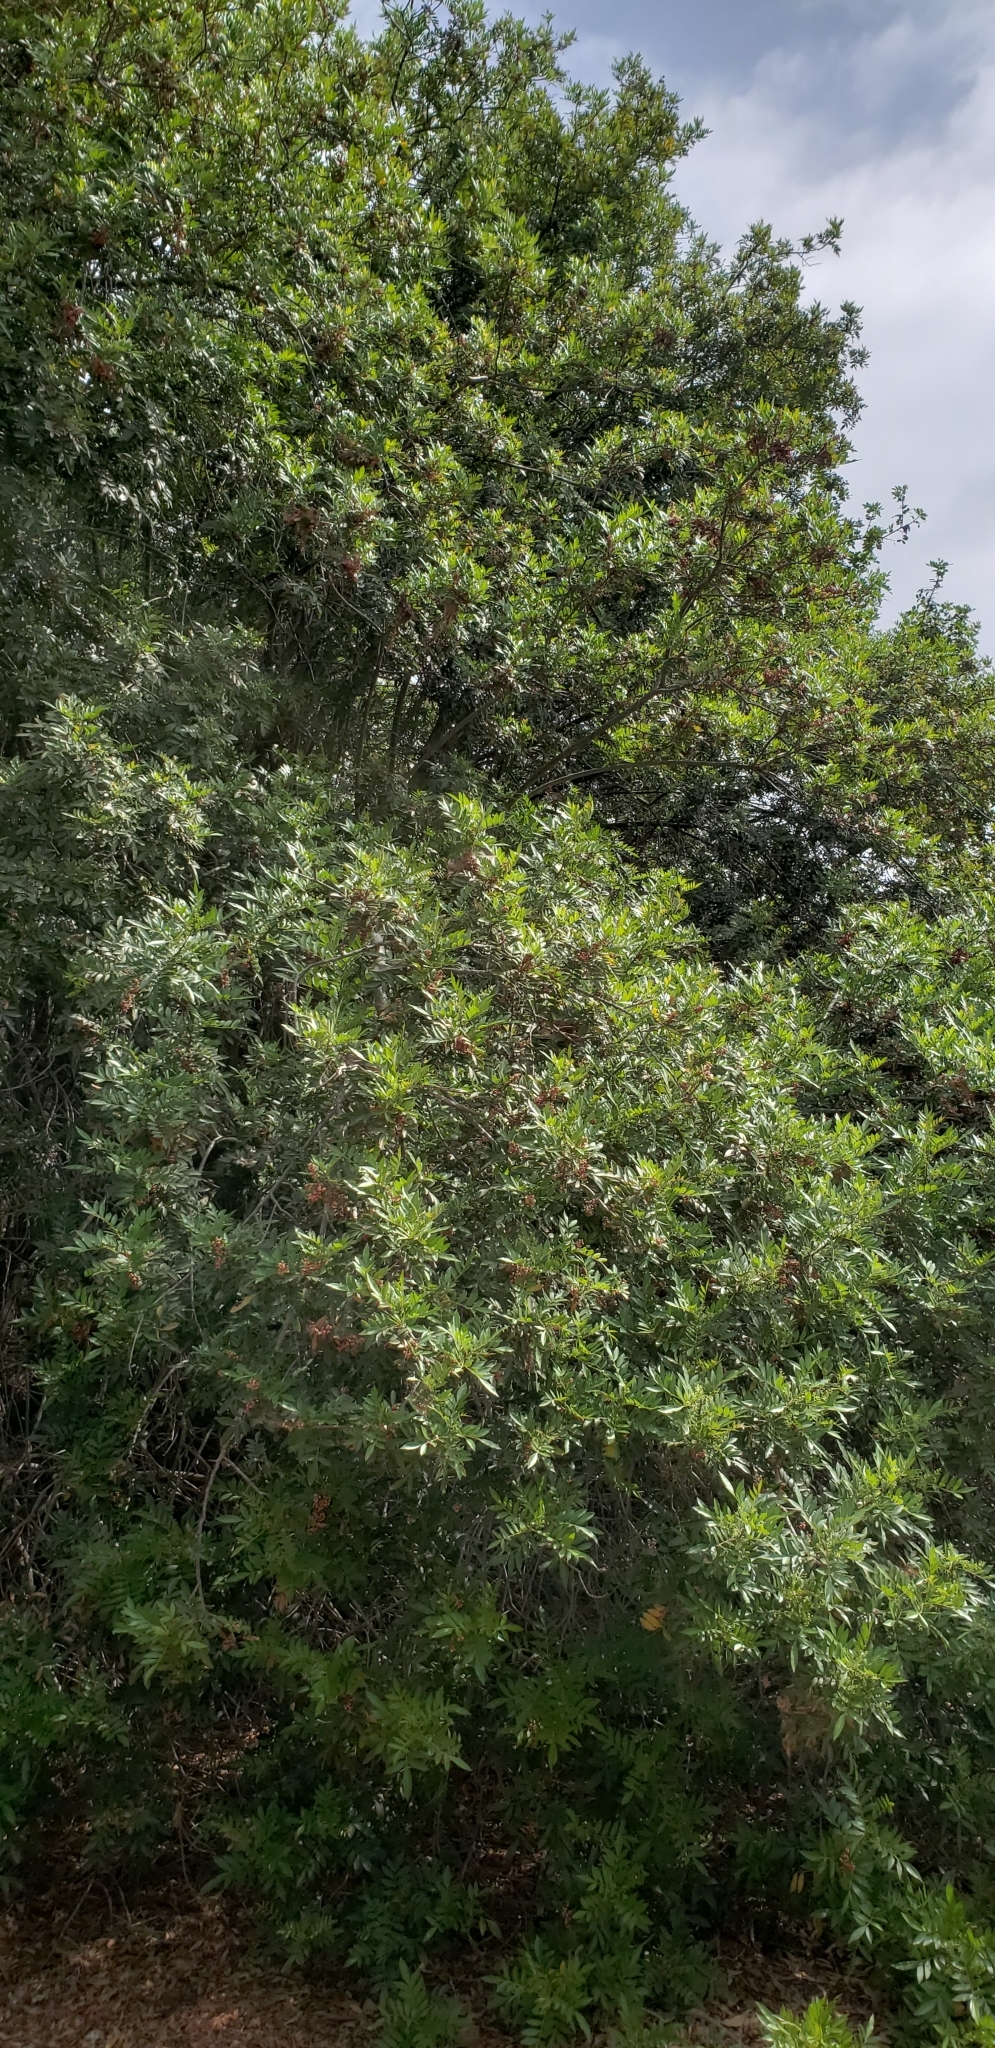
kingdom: Plantae
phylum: Tracheophyta
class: Magnoliopsida
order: Sapindales
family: Anacardiaceae
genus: Schinus
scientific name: Schinus terebinthifolia
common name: Brazilian peppertree
